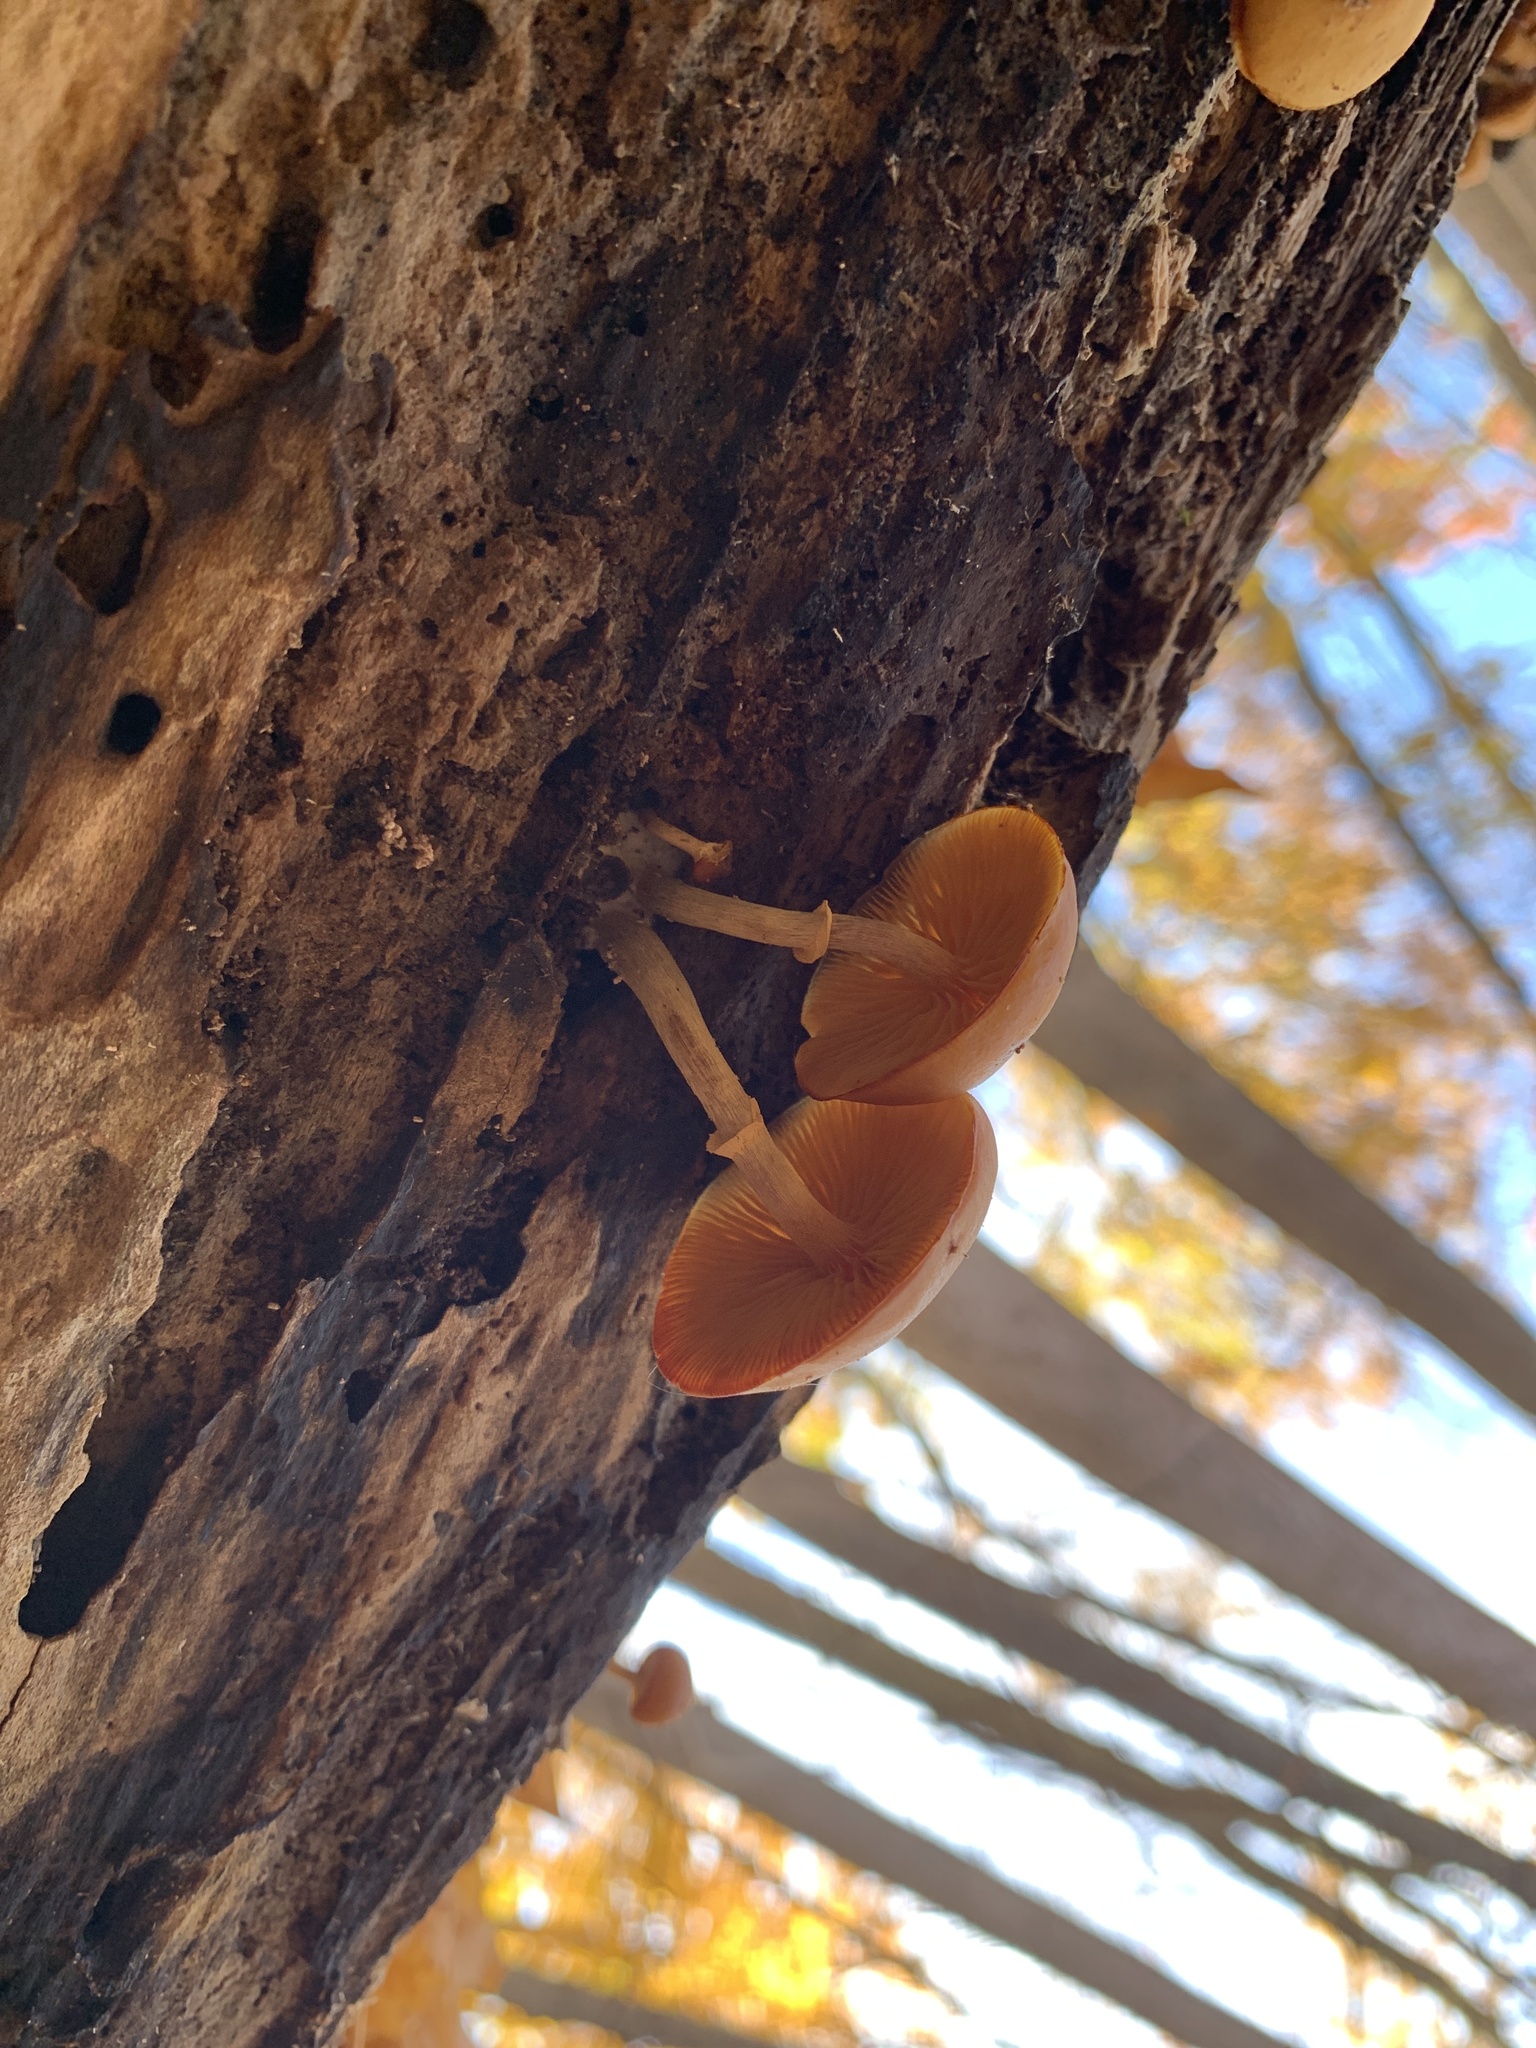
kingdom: Fungi
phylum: Basidiomycota
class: Agaricomycetes
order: Agaricales
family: Hymenogastraceae
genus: Galerina
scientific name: Galerina marginata
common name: Funeral bell
